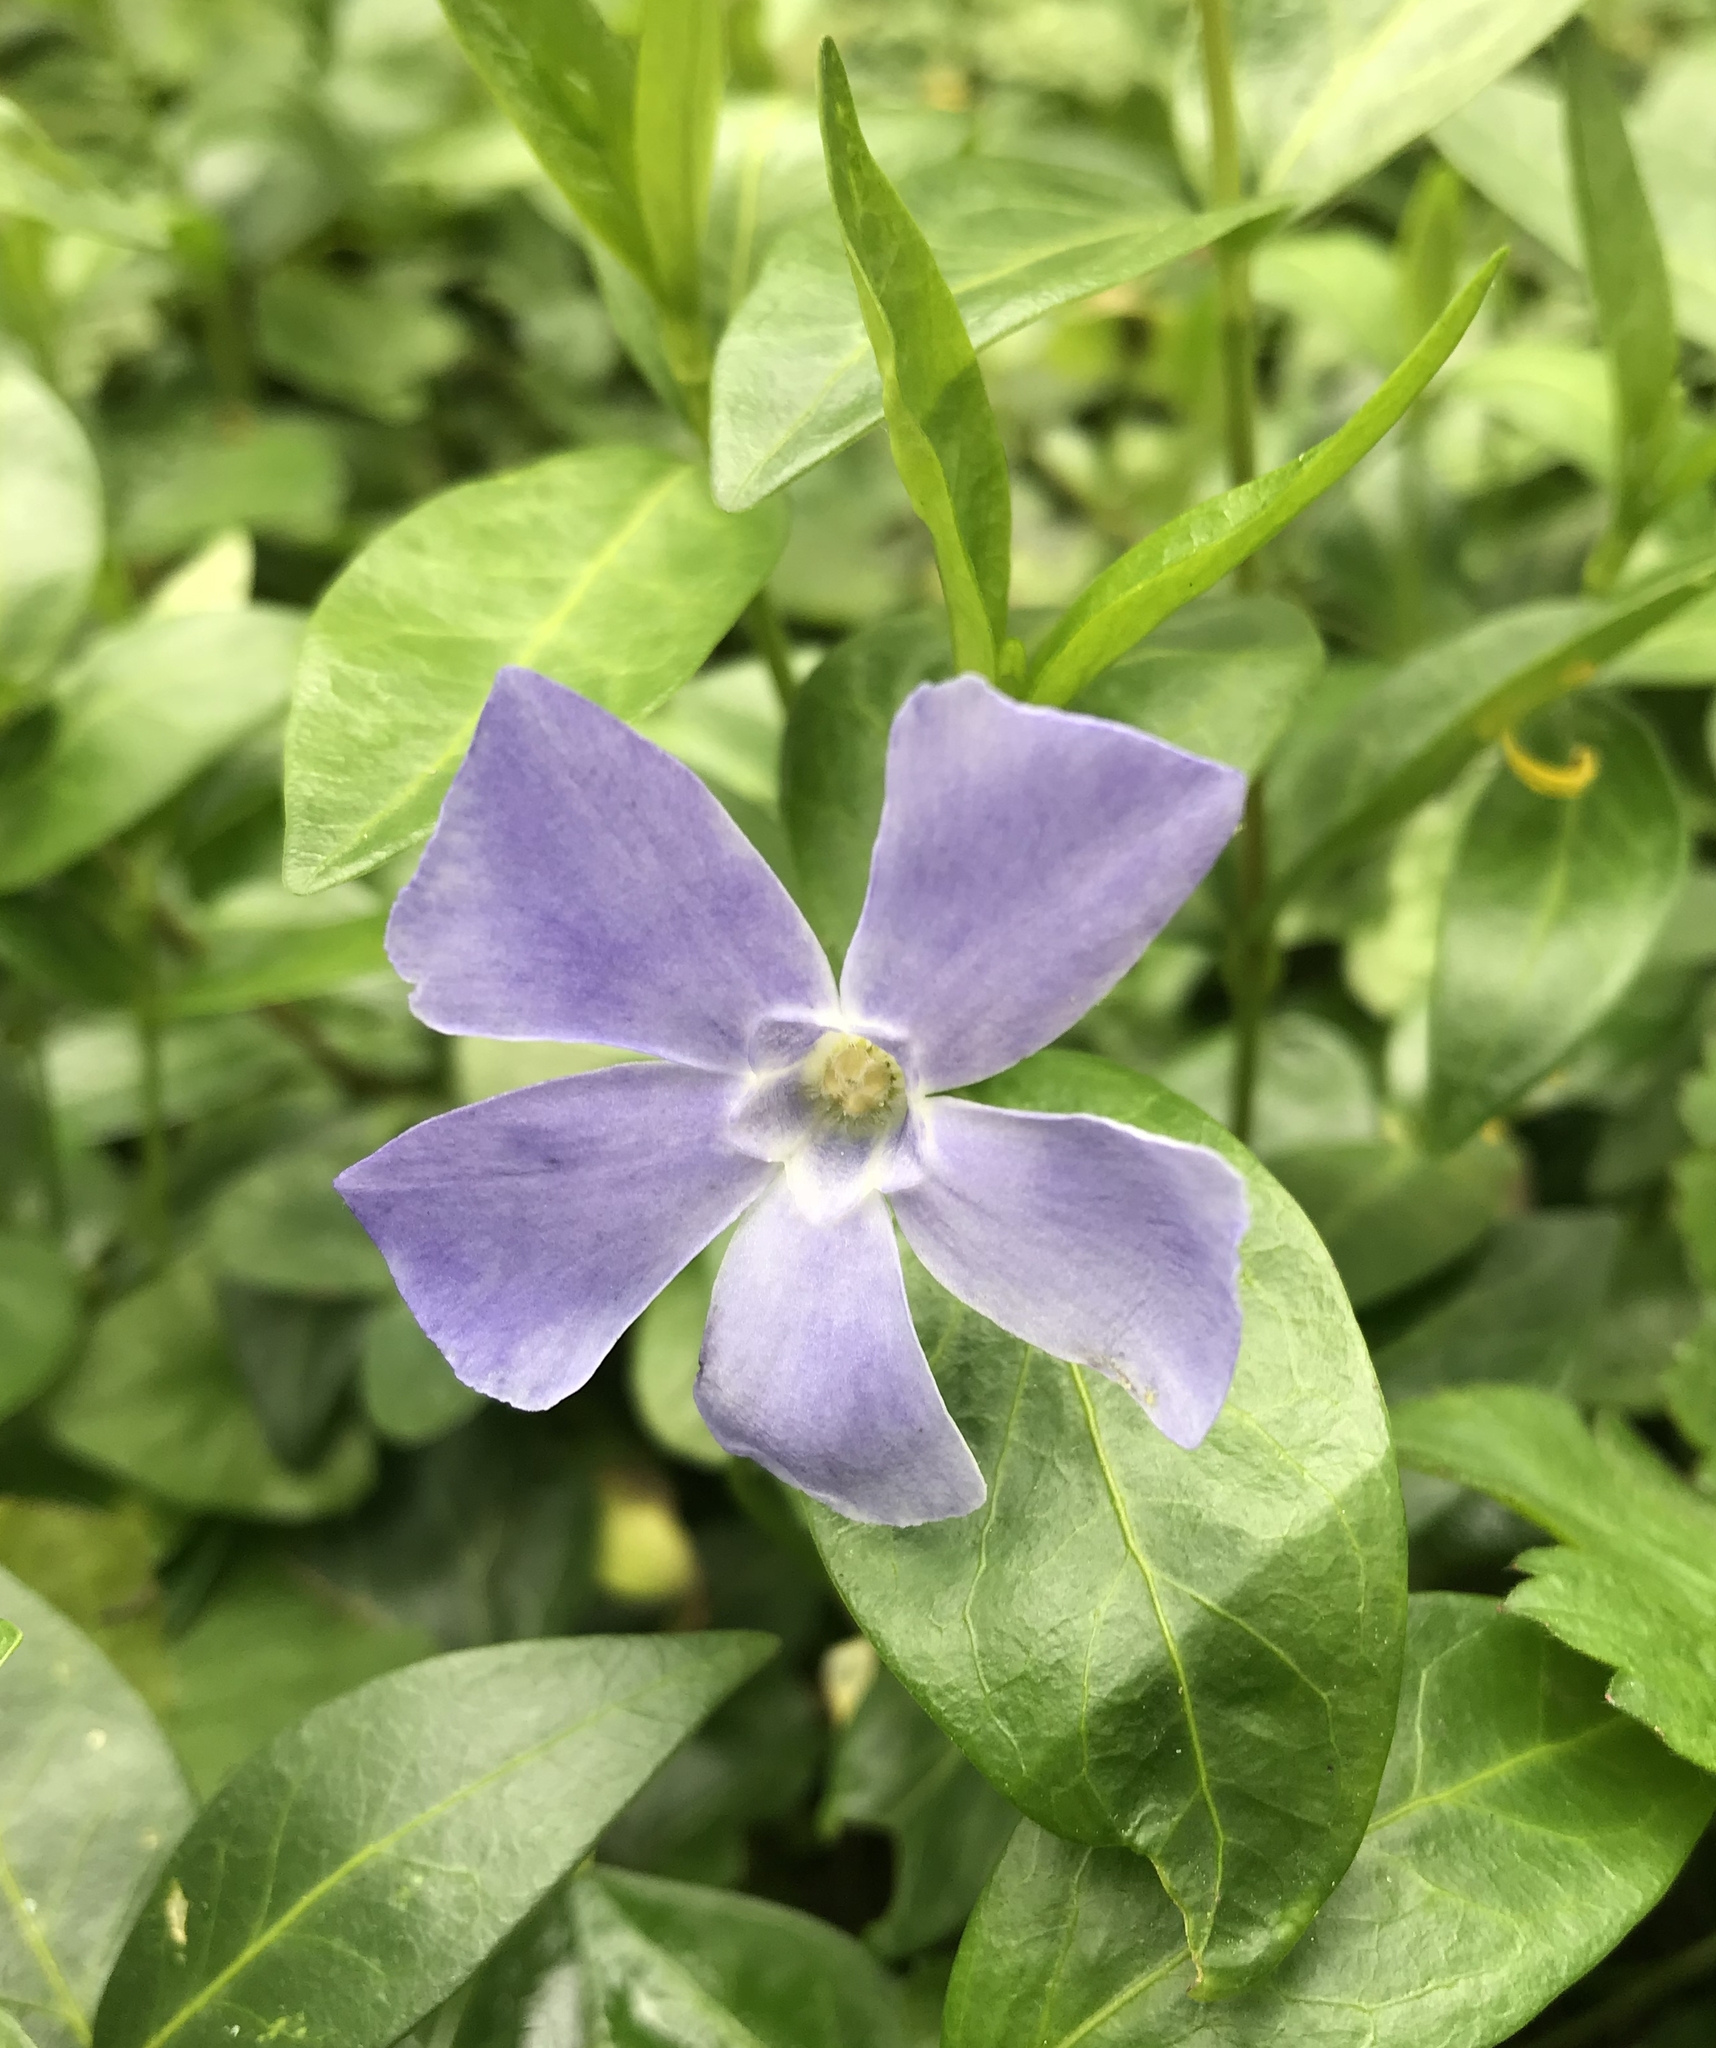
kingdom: Plantae
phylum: Tracheophyta
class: Magnoliopsida
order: Gentianales
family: Apocynaceae
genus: Vinca
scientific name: Vinca minor
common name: Lesser periwinkle
